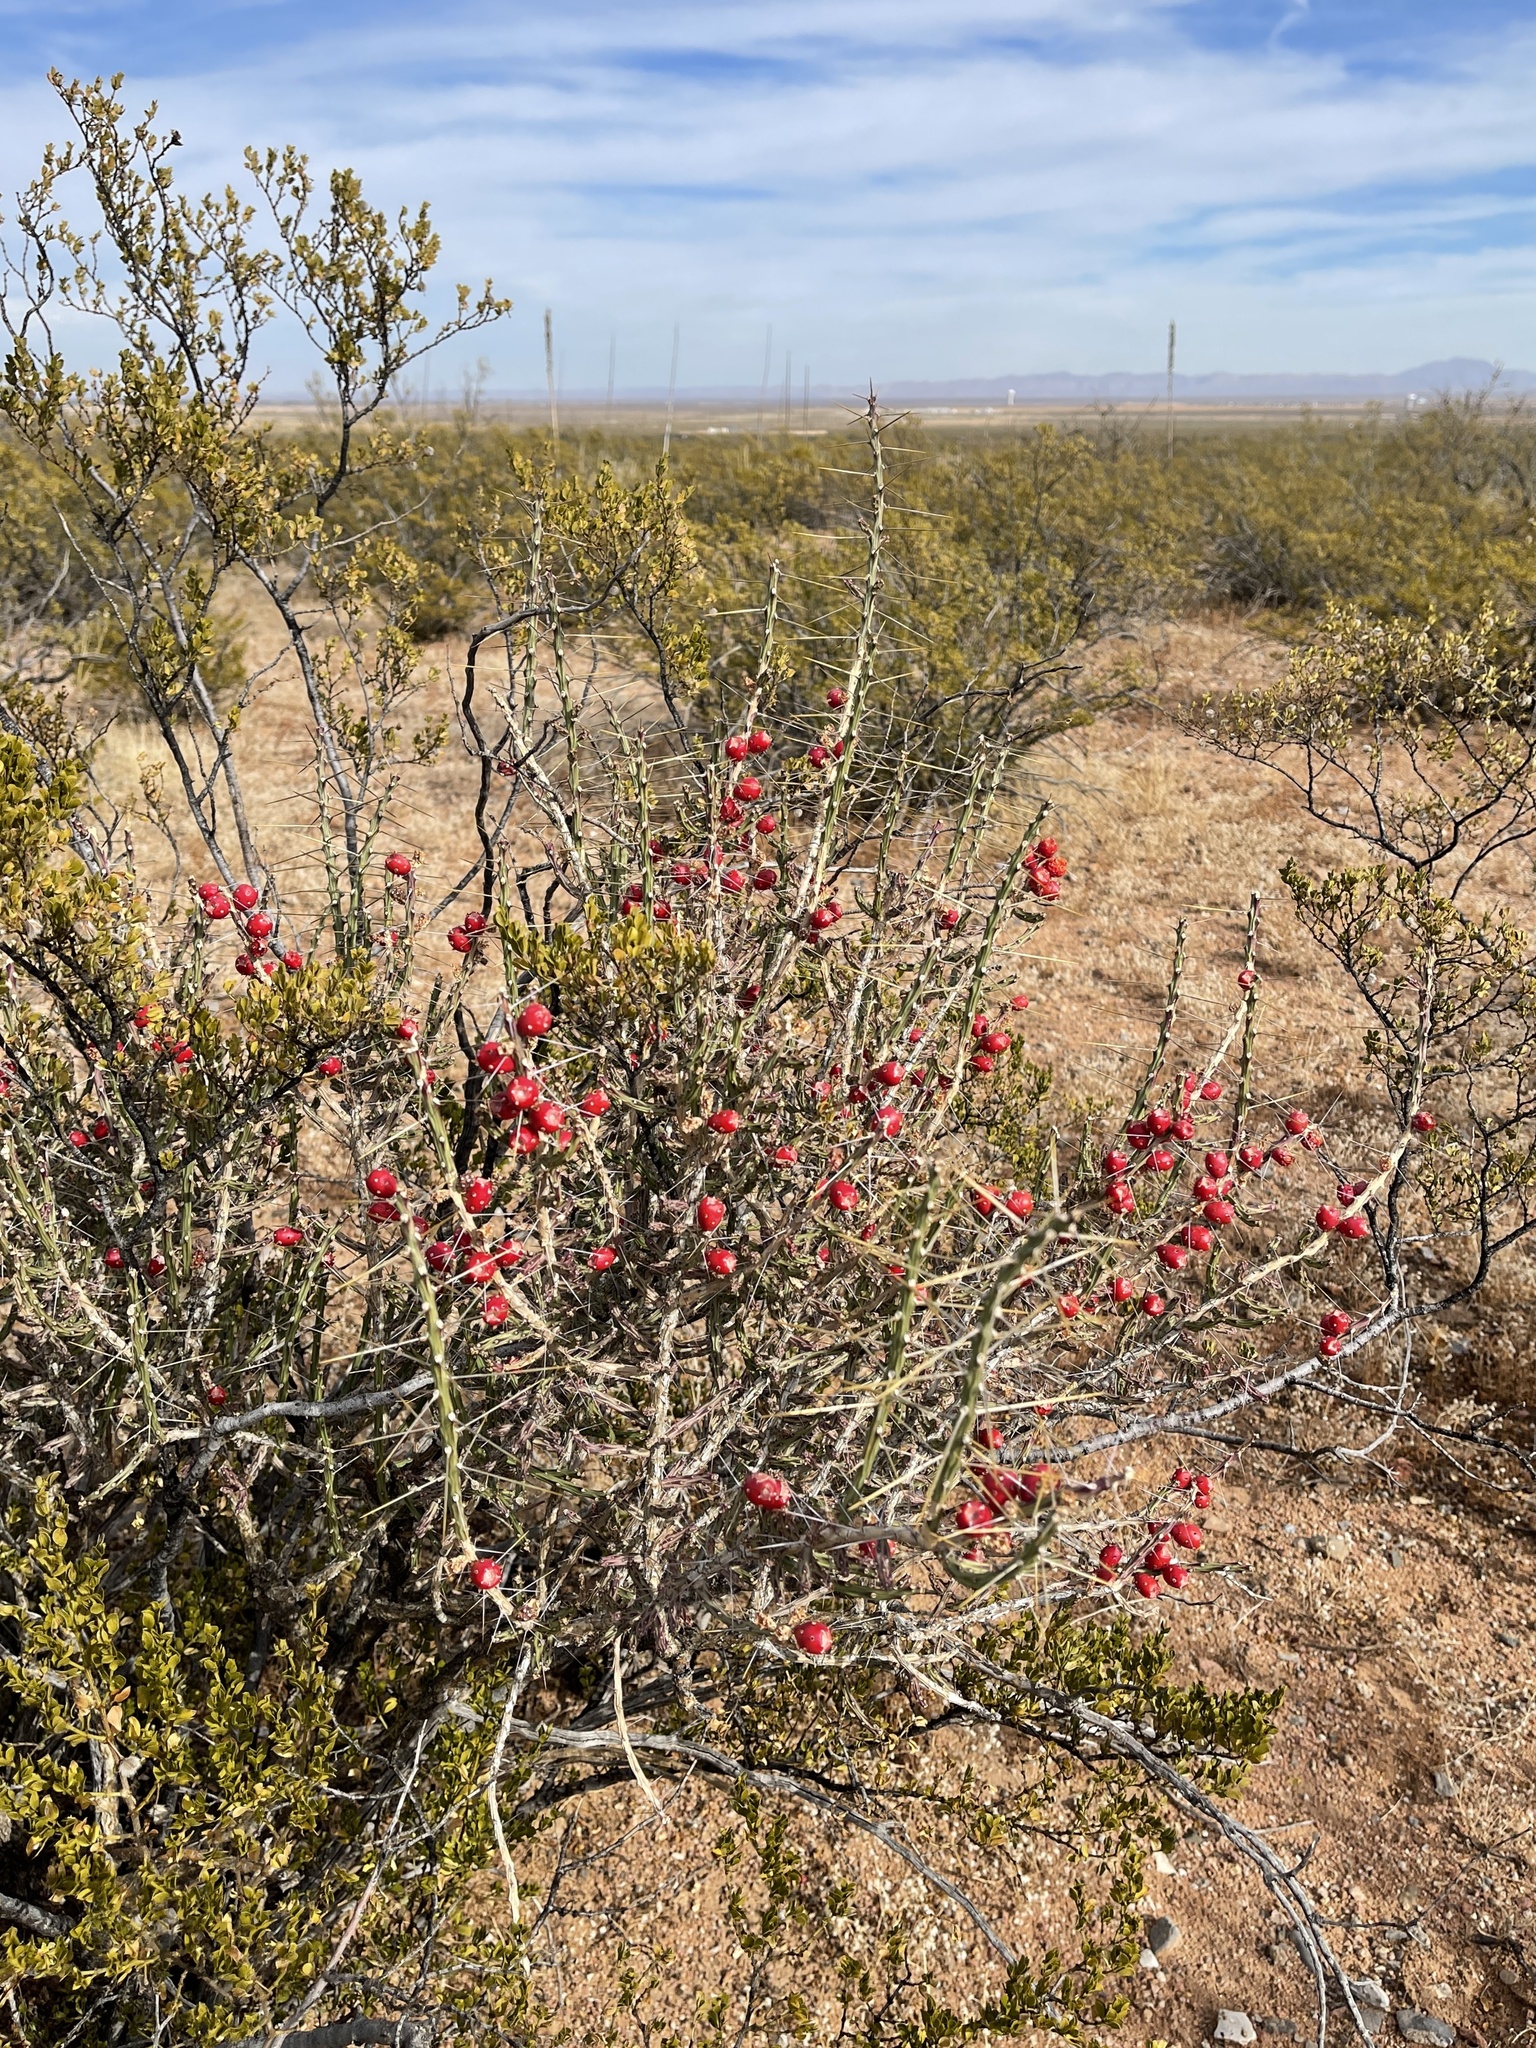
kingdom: Plantae
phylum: Tracheophyta
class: Magnoliopsida
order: Caryophyllales
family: Cactaceae
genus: Cylindropuntia
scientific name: Cylindropuntia leptocaulis
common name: Christmas cactus
